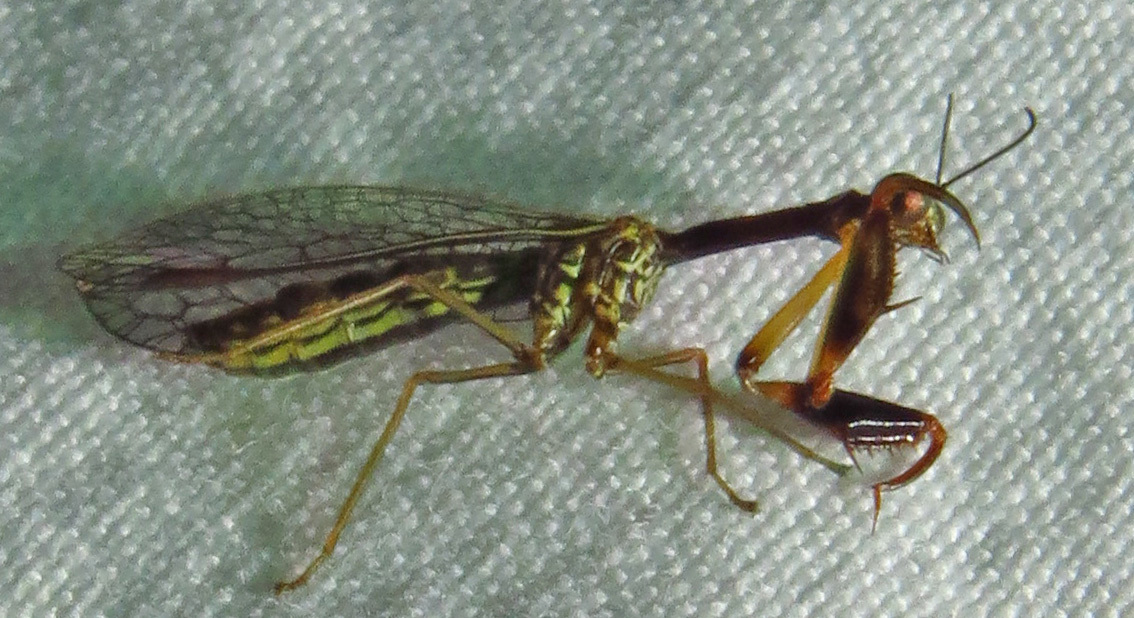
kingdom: Animalia
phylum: Arthropoda
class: Insecta
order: Neuroptera
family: Mantispidae
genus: Leptomantispa
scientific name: Leptomantispa pulchella
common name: Stevens's mantidfly
